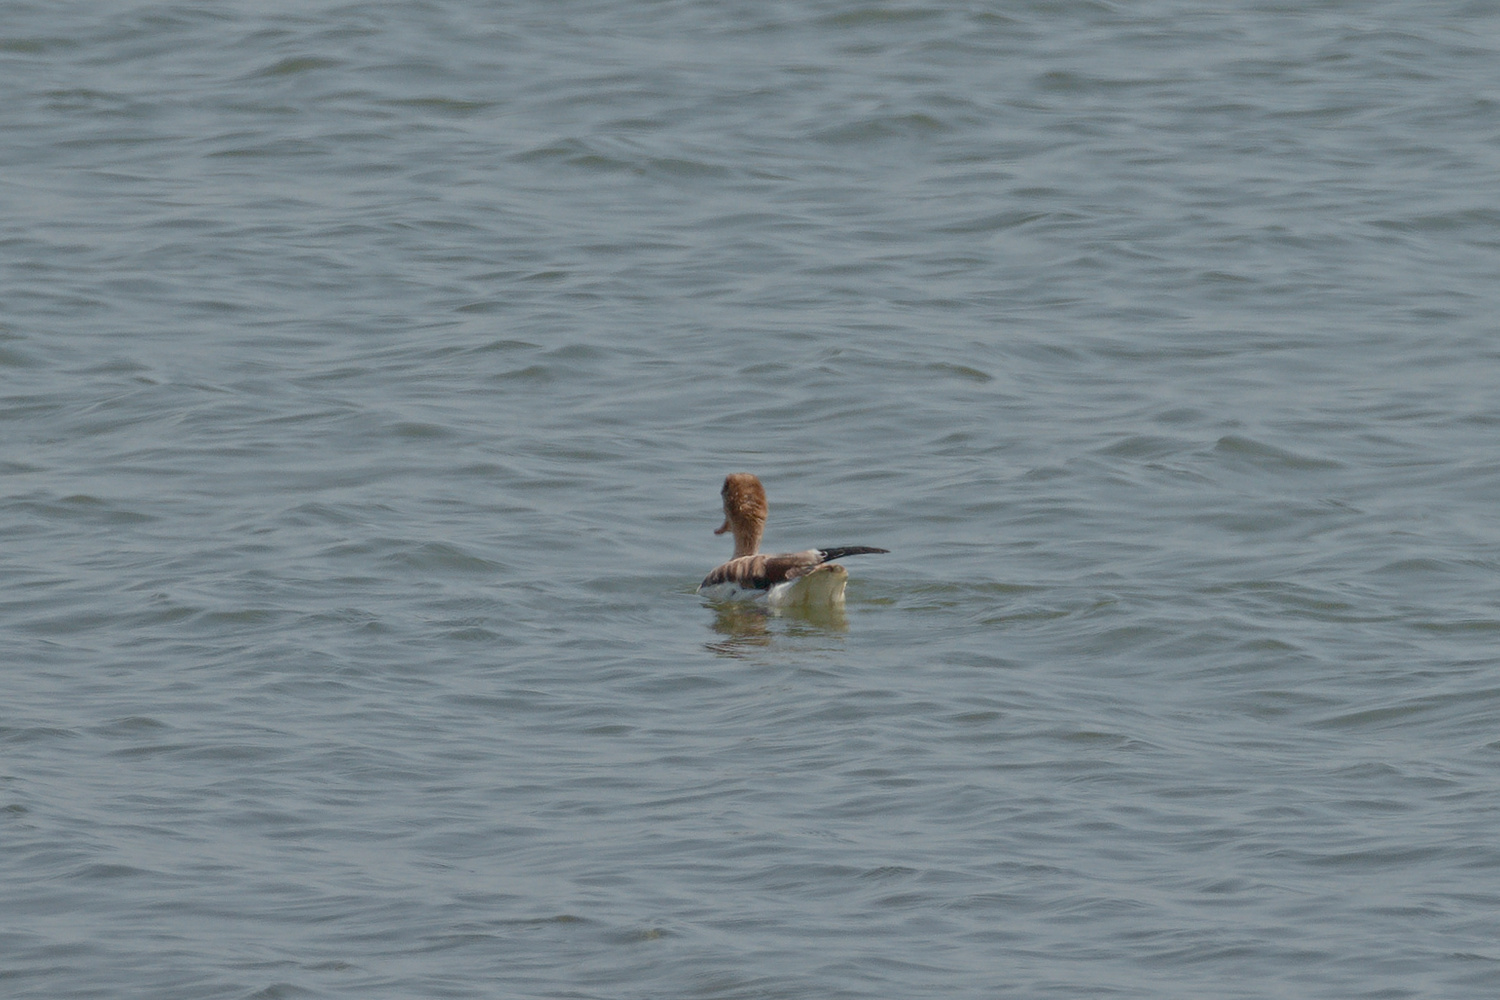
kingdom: Animalia
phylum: Chordata
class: Aves
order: Anseriformes
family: Anatidae
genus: Tadorna
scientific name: Tadorna tadorna
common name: Common shelduck
